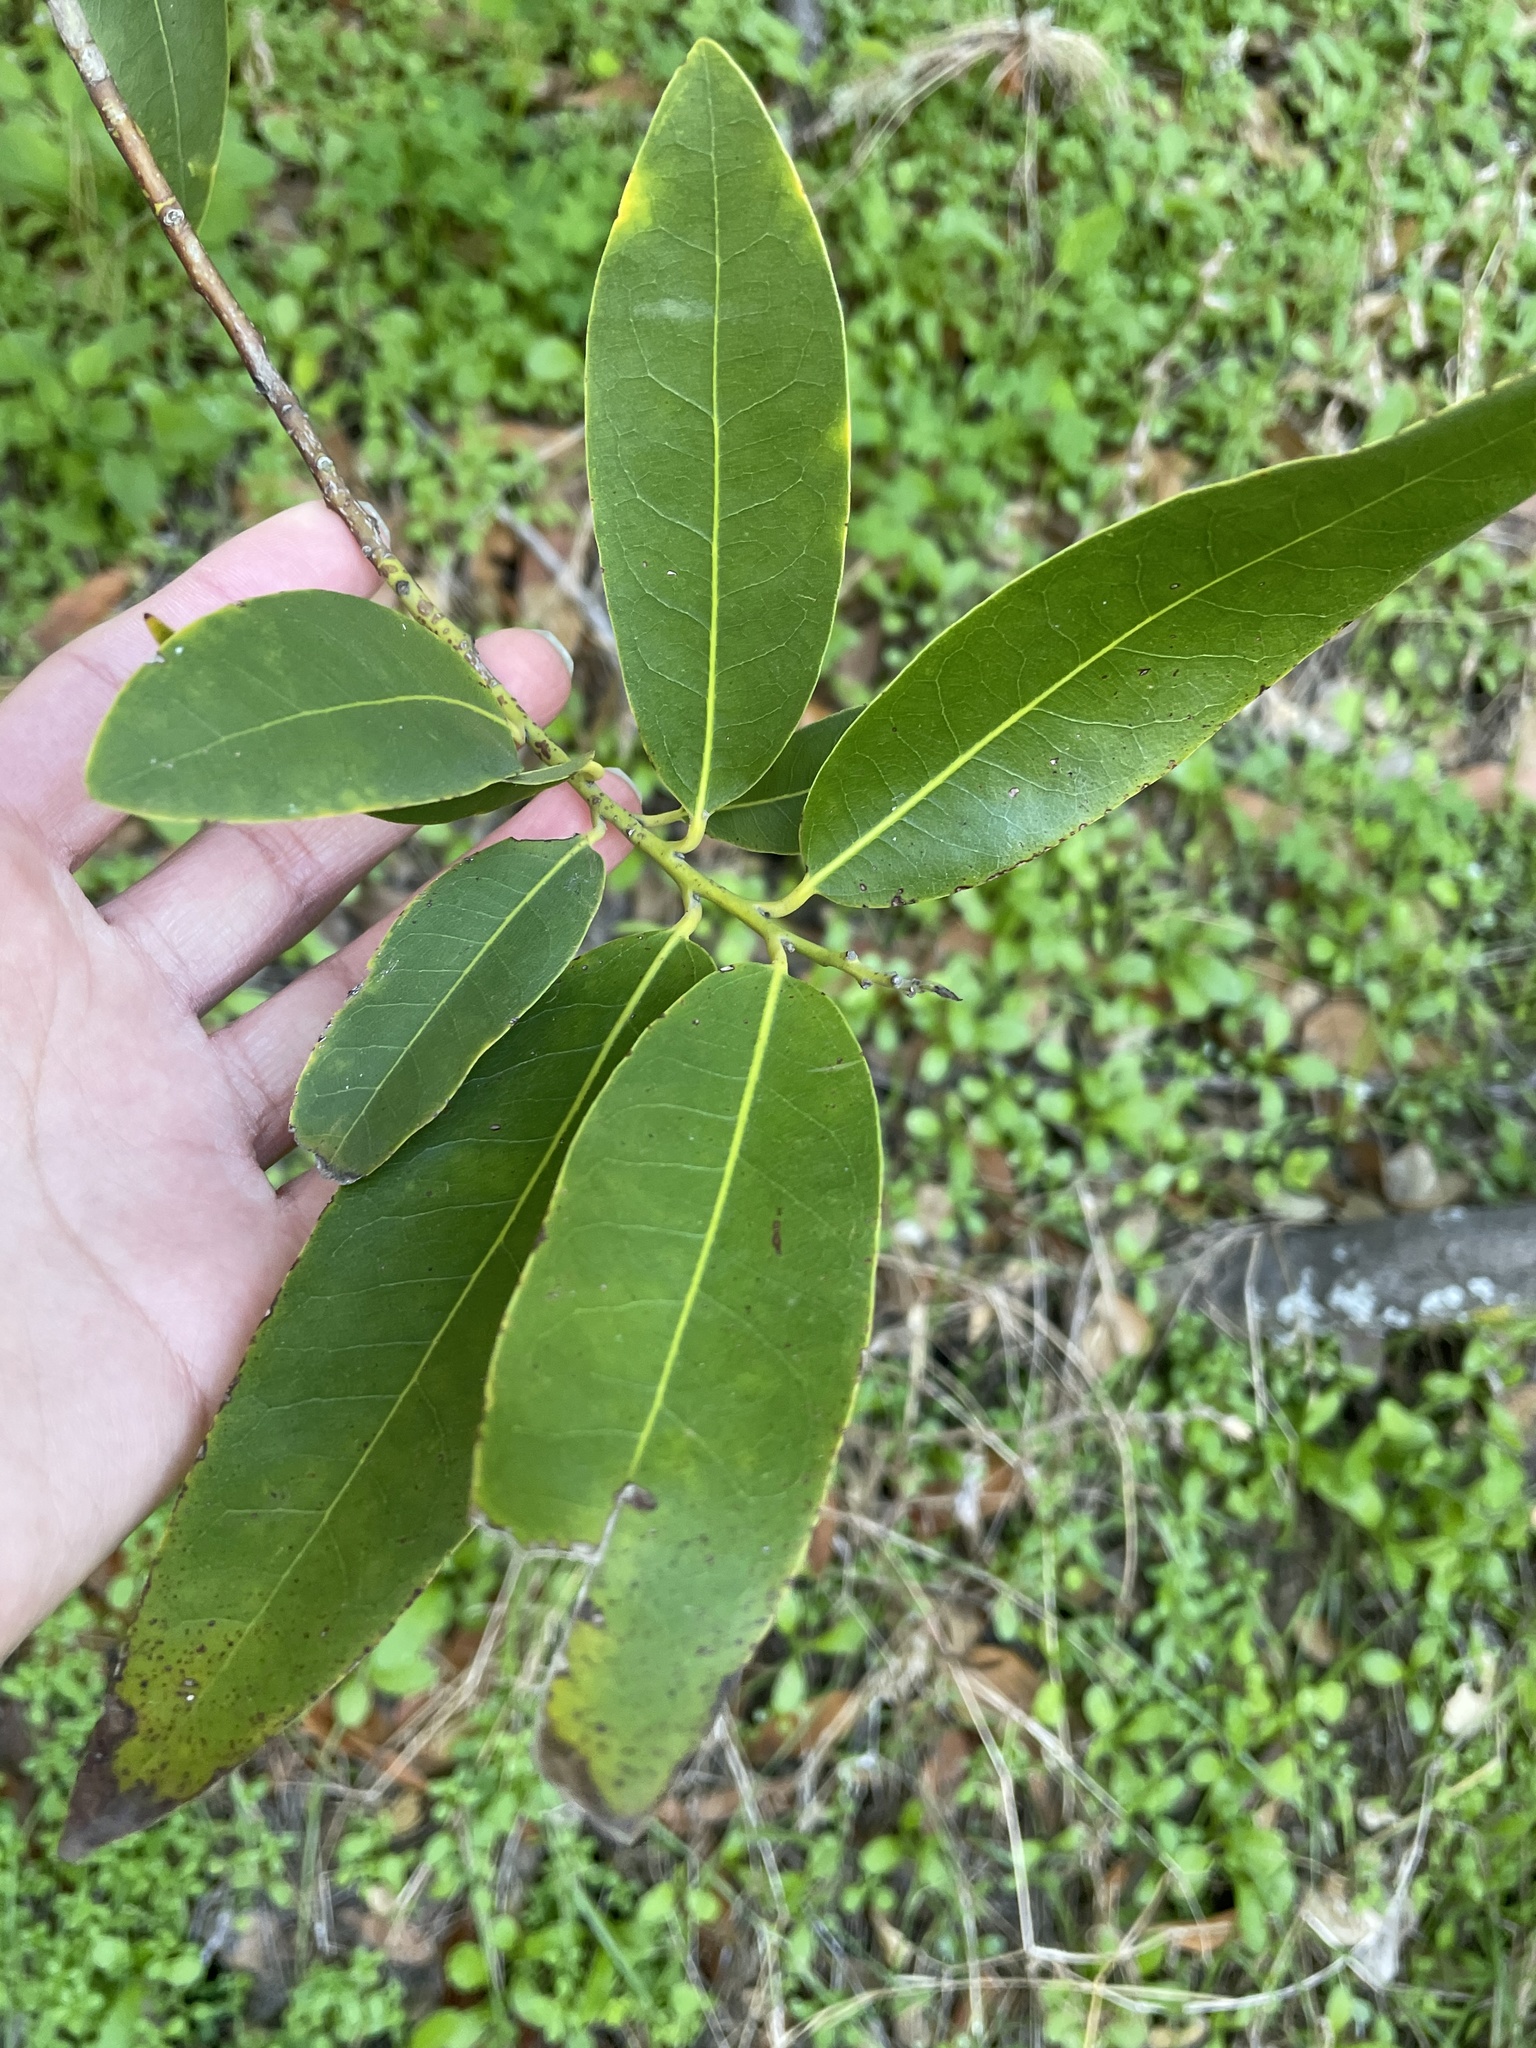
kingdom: Plantae
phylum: Tracheophyta
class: Magnoliopsida
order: Laurales
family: Lauraceae
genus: Umbellularia
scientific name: Umbellularia californica
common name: California bay
